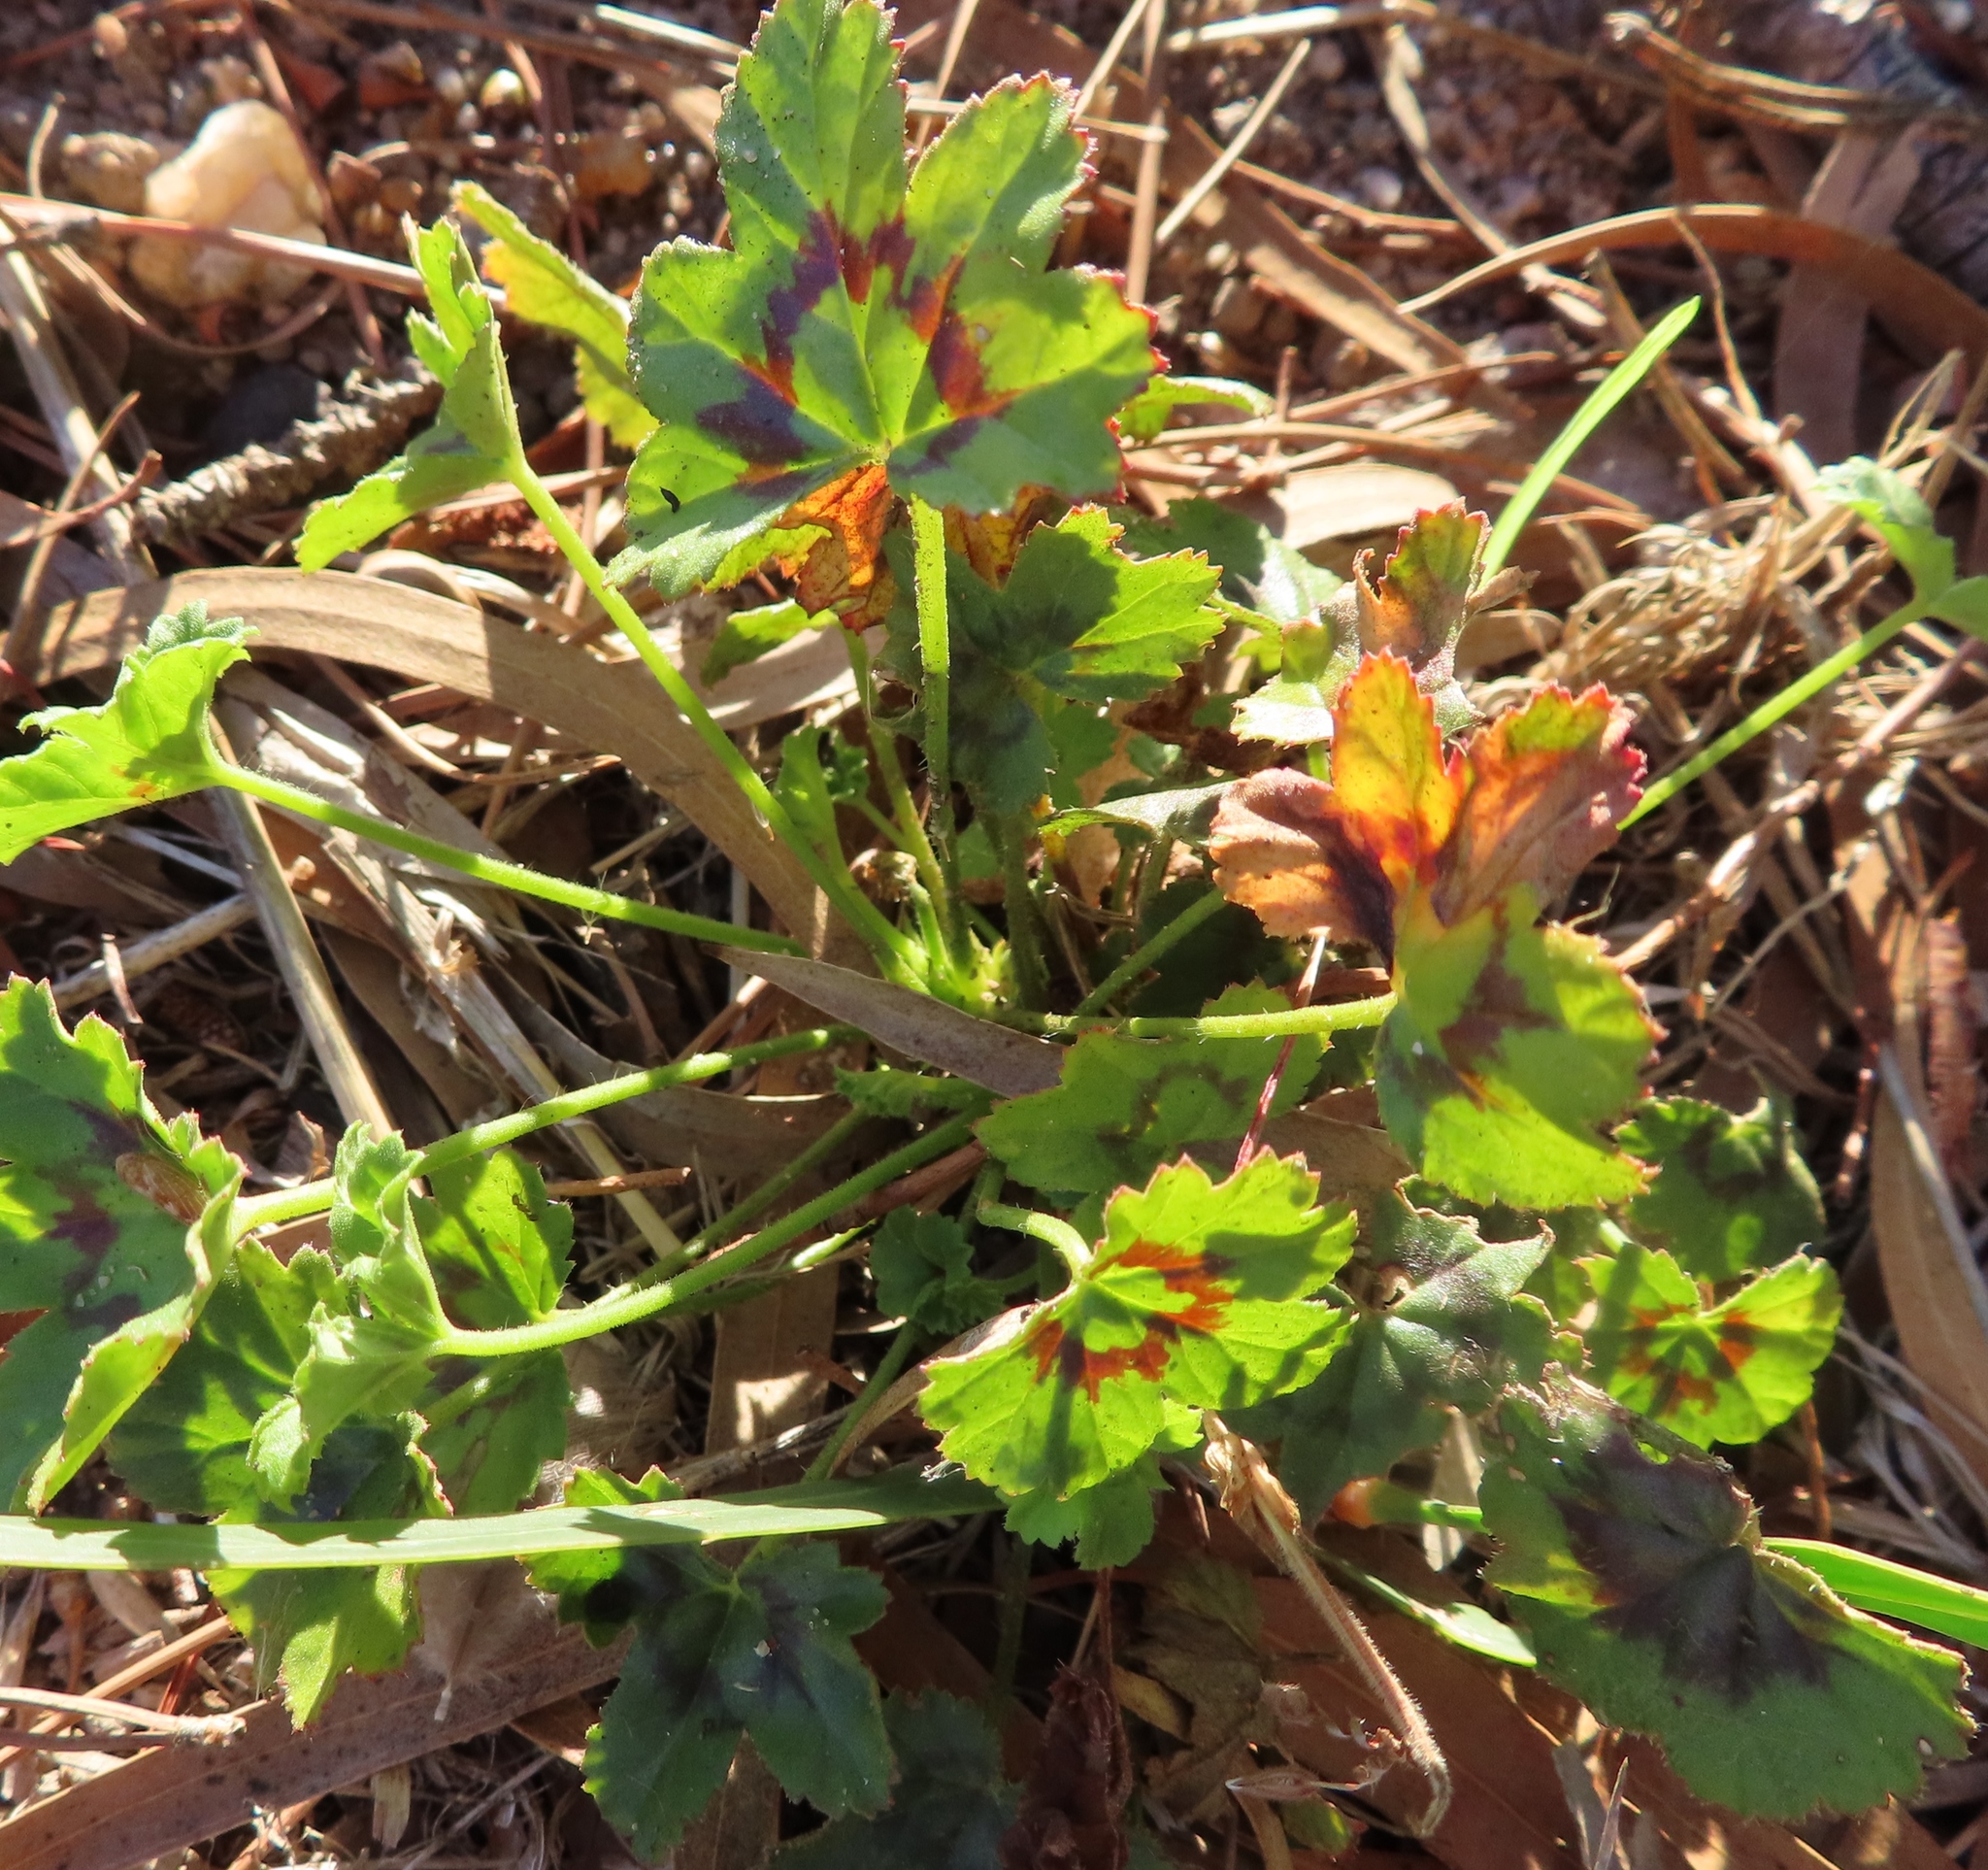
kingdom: Plantae
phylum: Tracheophyta
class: Magnoliopsida
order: Geraniales
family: Geraniaceae
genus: Pelargonium
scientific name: Pelargonium alchemilloides
